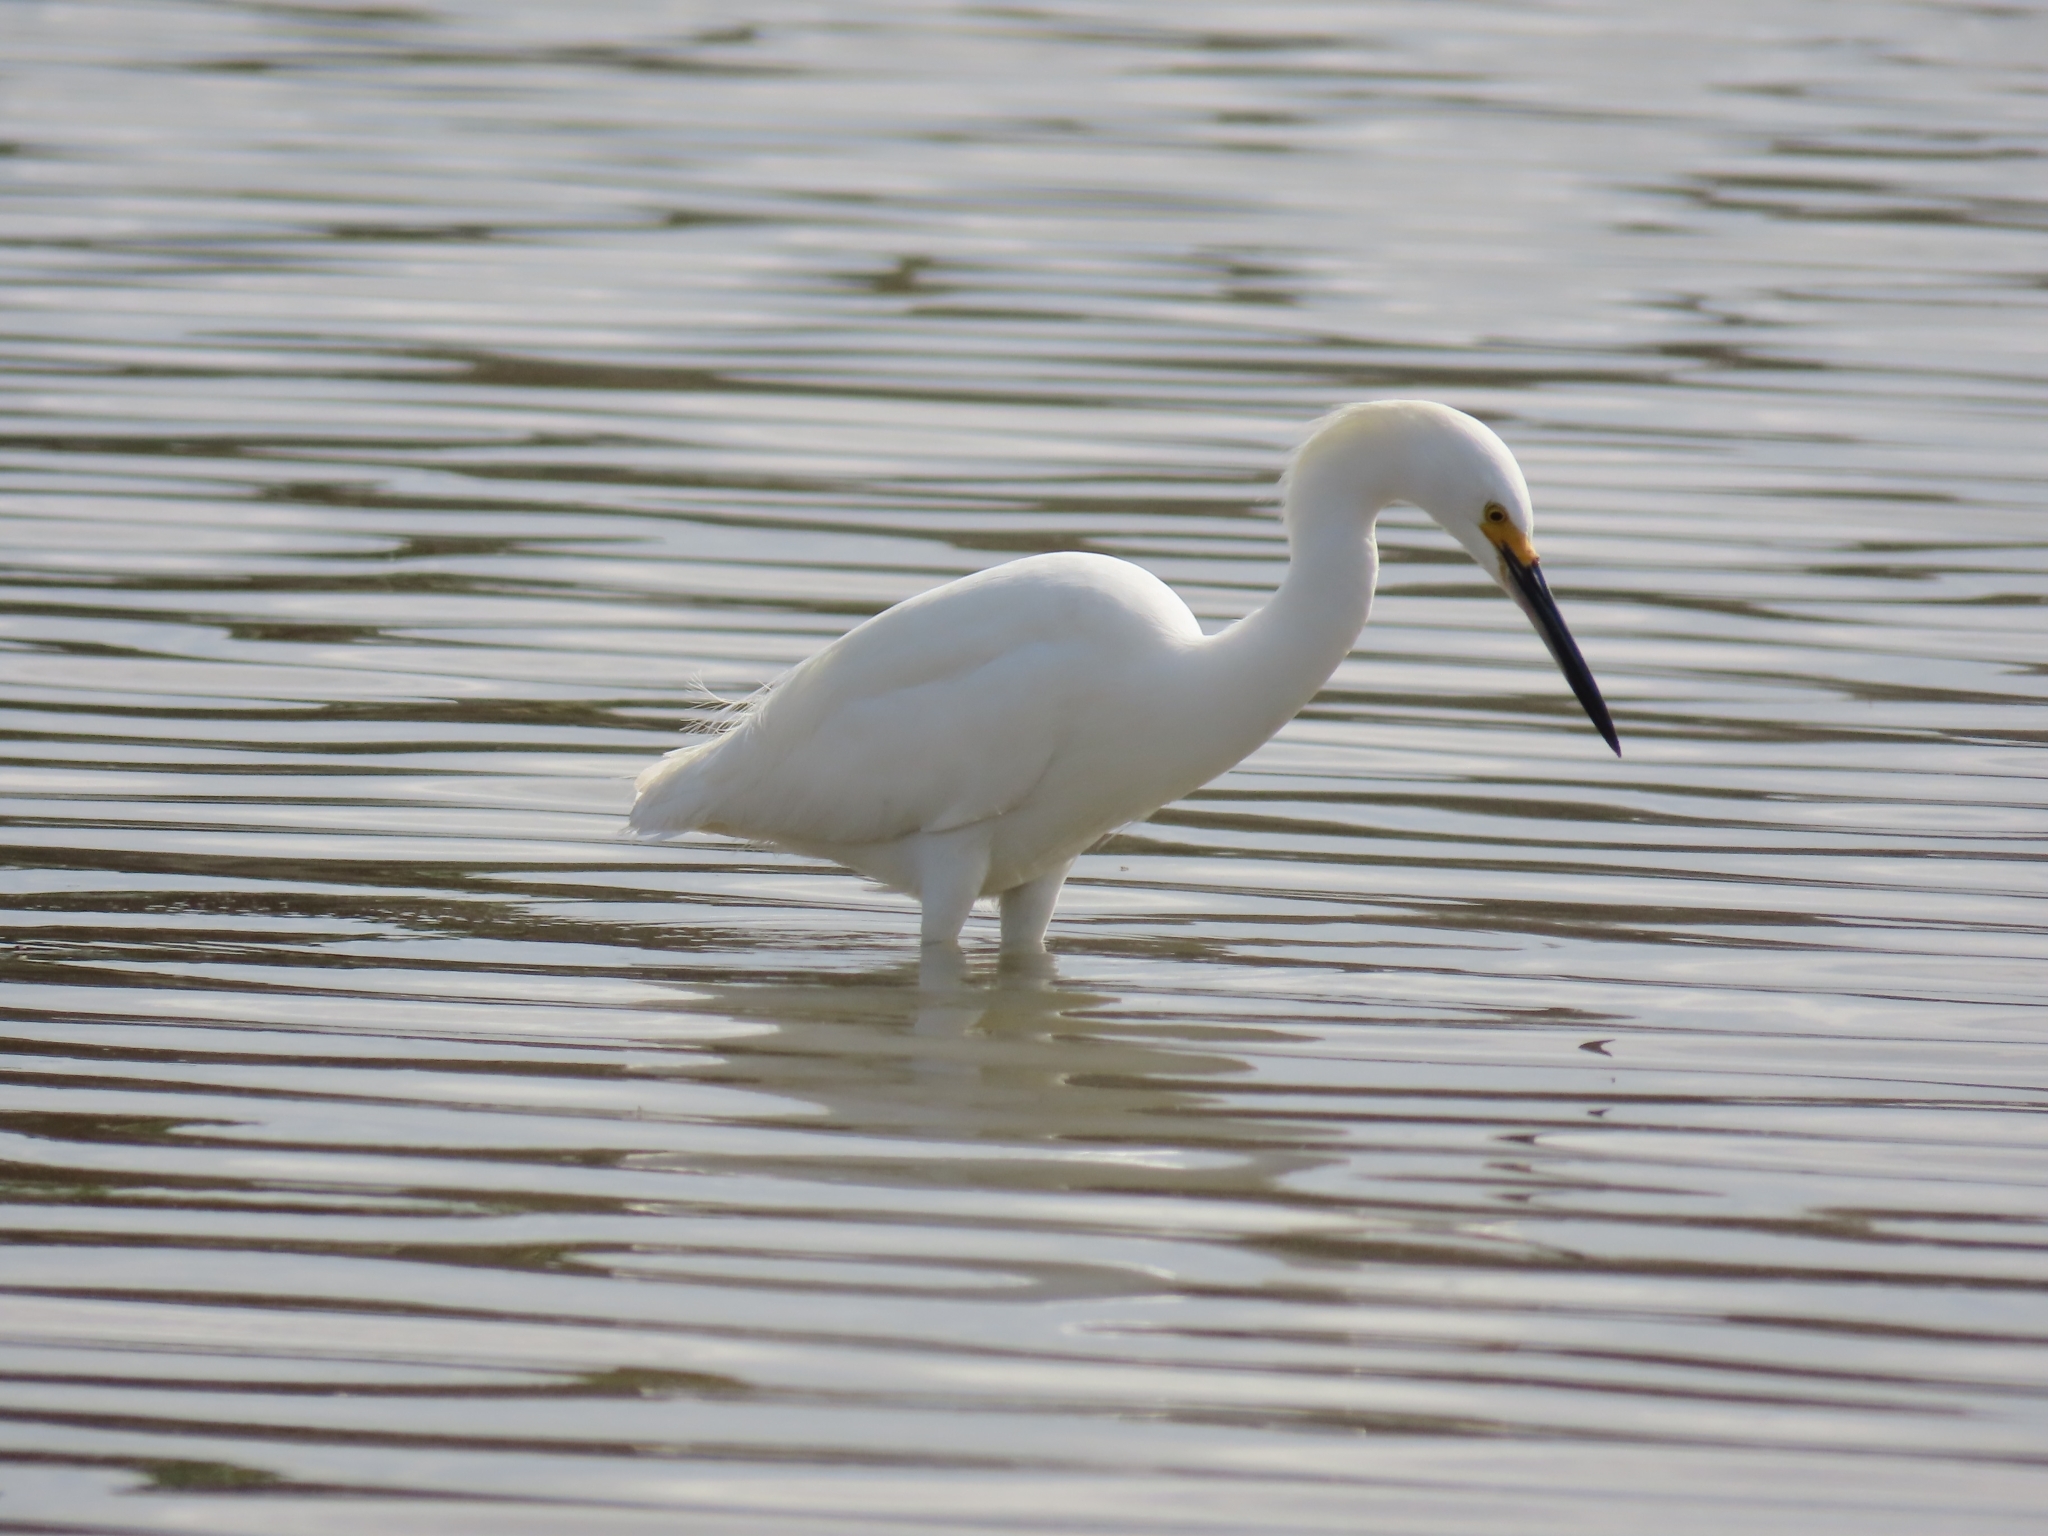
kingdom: Animalia
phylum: Chordata
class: Aves
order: Pelecaniformes
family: Ardeidae
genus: Egretta
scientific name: Egretta thula
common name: Snowy egret
